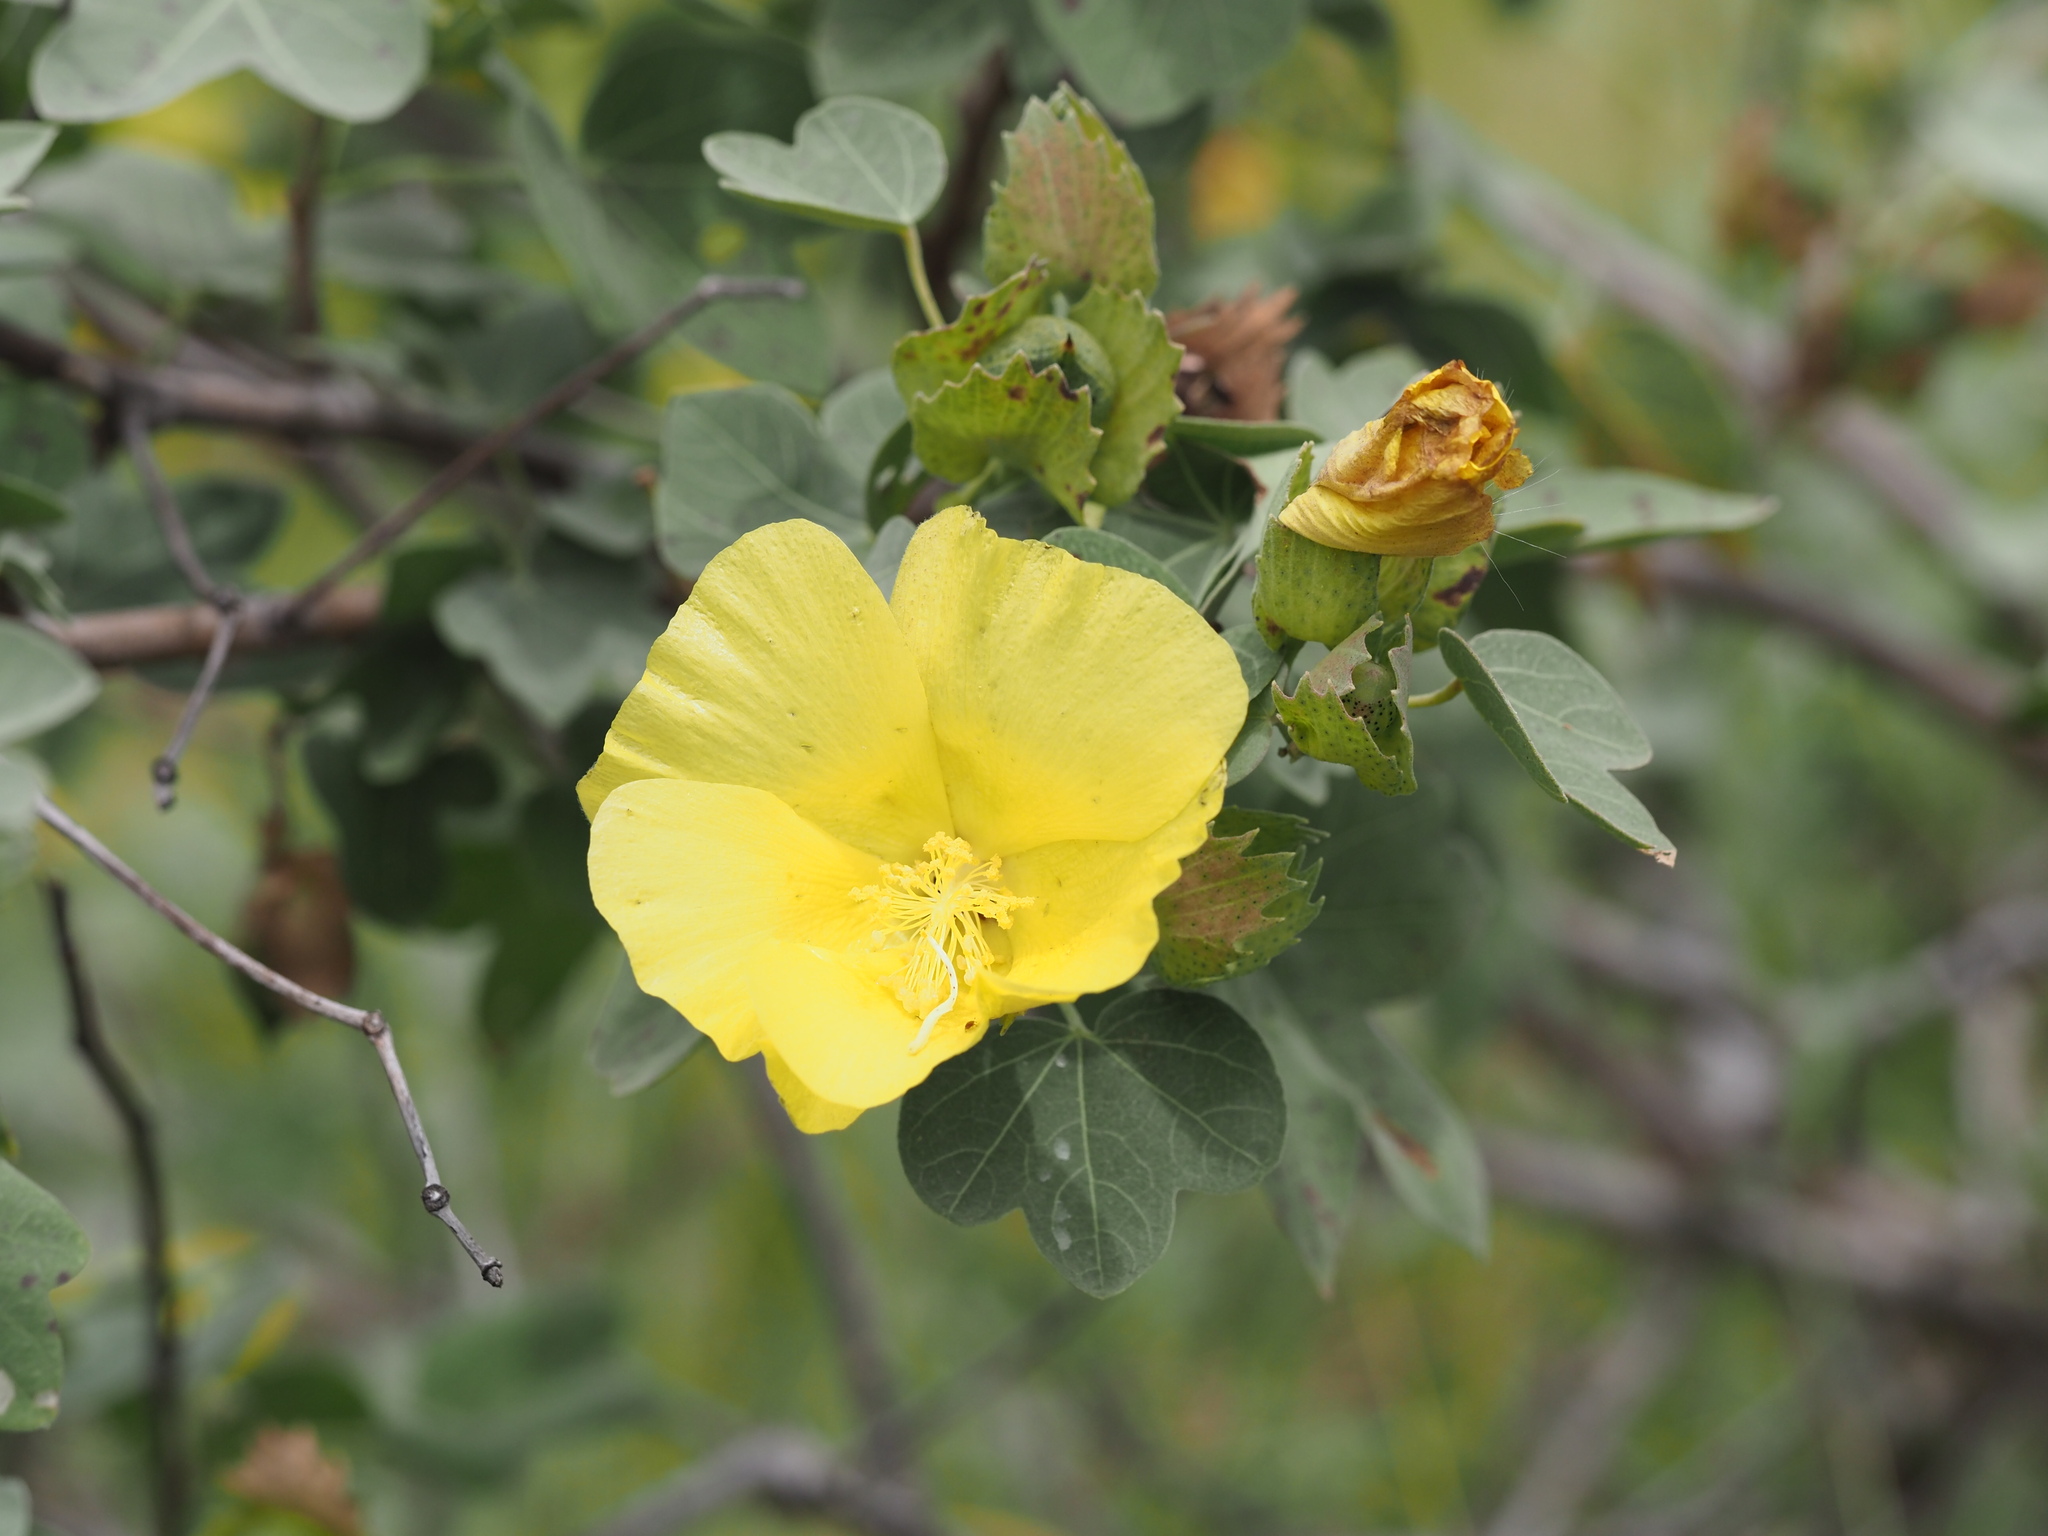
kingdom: Plantae
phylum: Tracheophyta
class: Magnoliopsida
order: Malvales
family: Malvaceae
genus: Gossypium
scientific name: Gossypium tomentosum
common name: Hawaiian cotton
